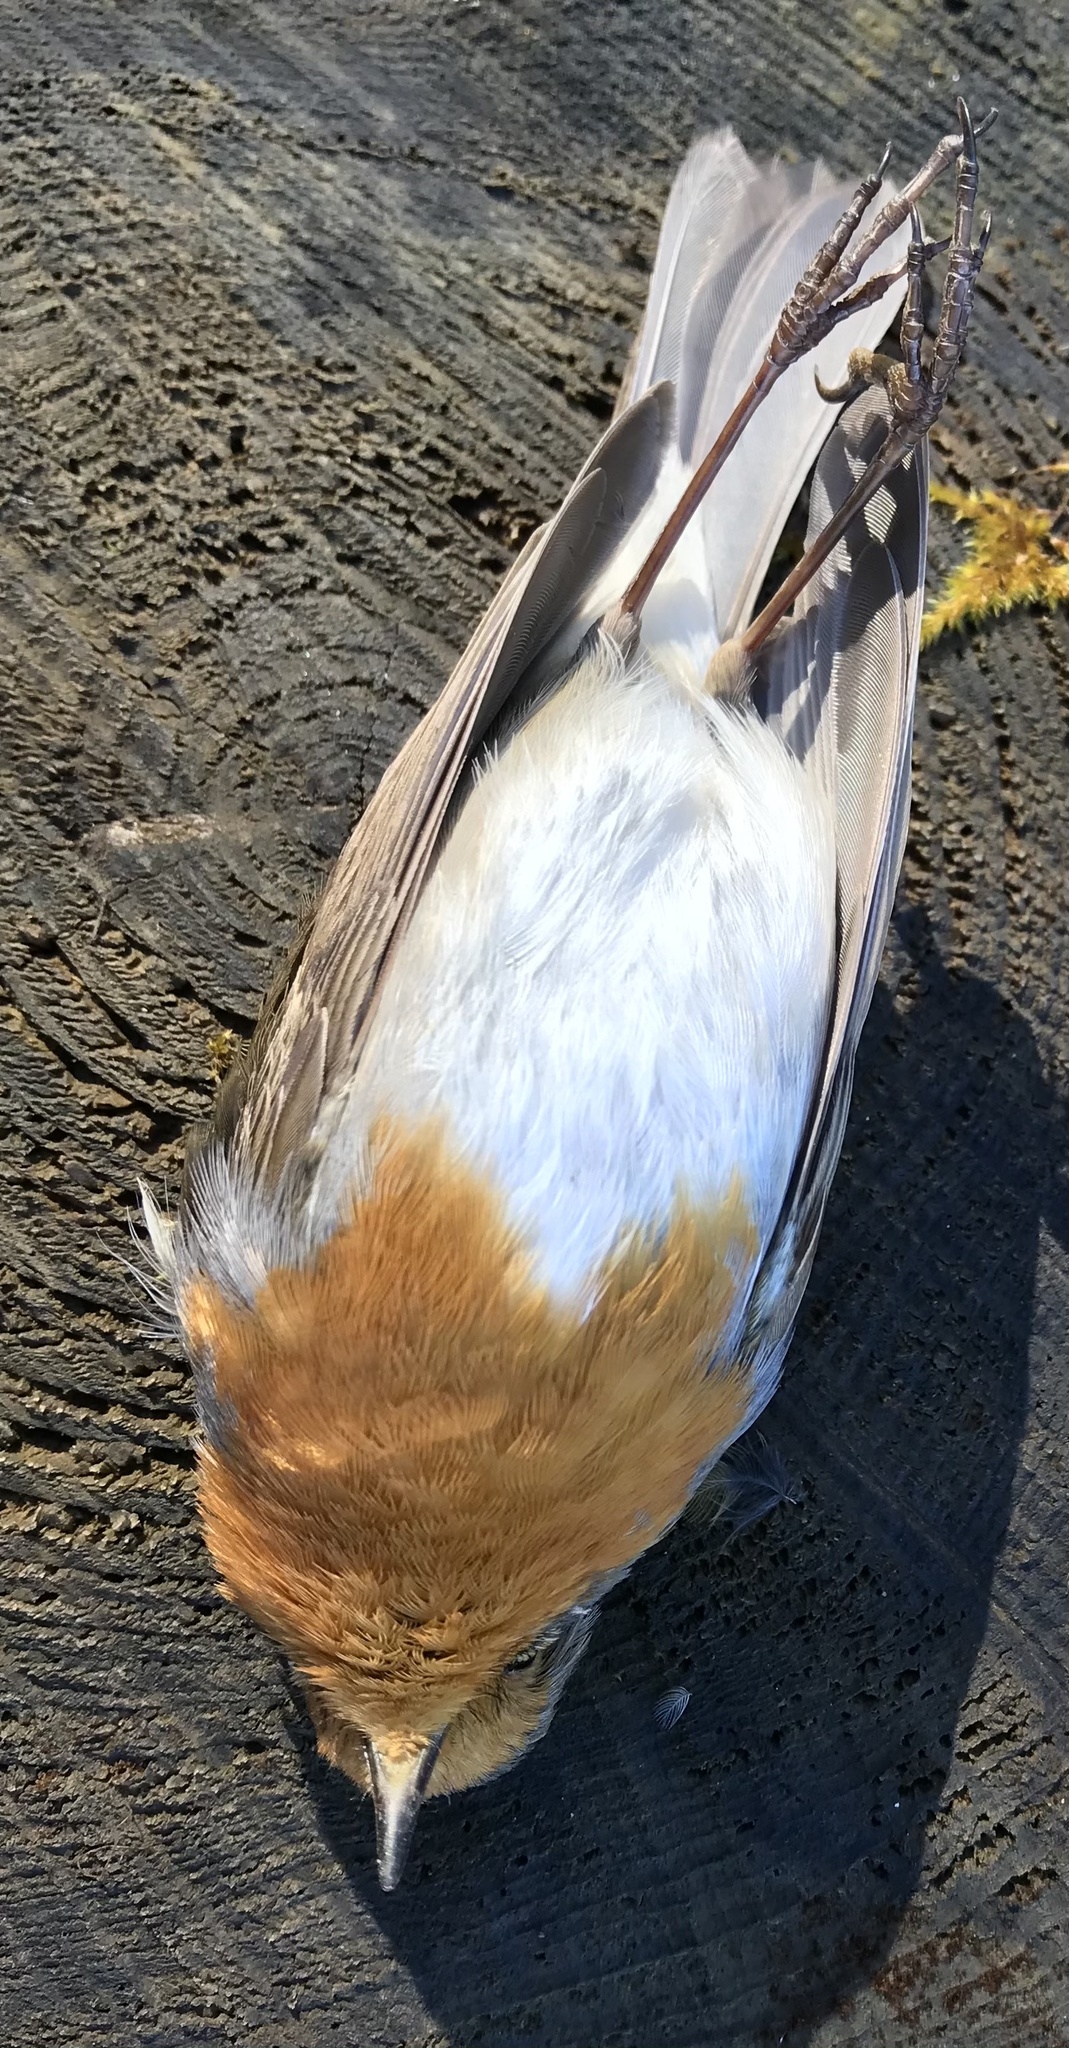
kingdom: Animalia
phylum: Chordata
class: Aves
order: Passeriformes
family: Muscicapidae
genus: Erithacus
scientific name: Erithacus rubecula
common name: European robin
